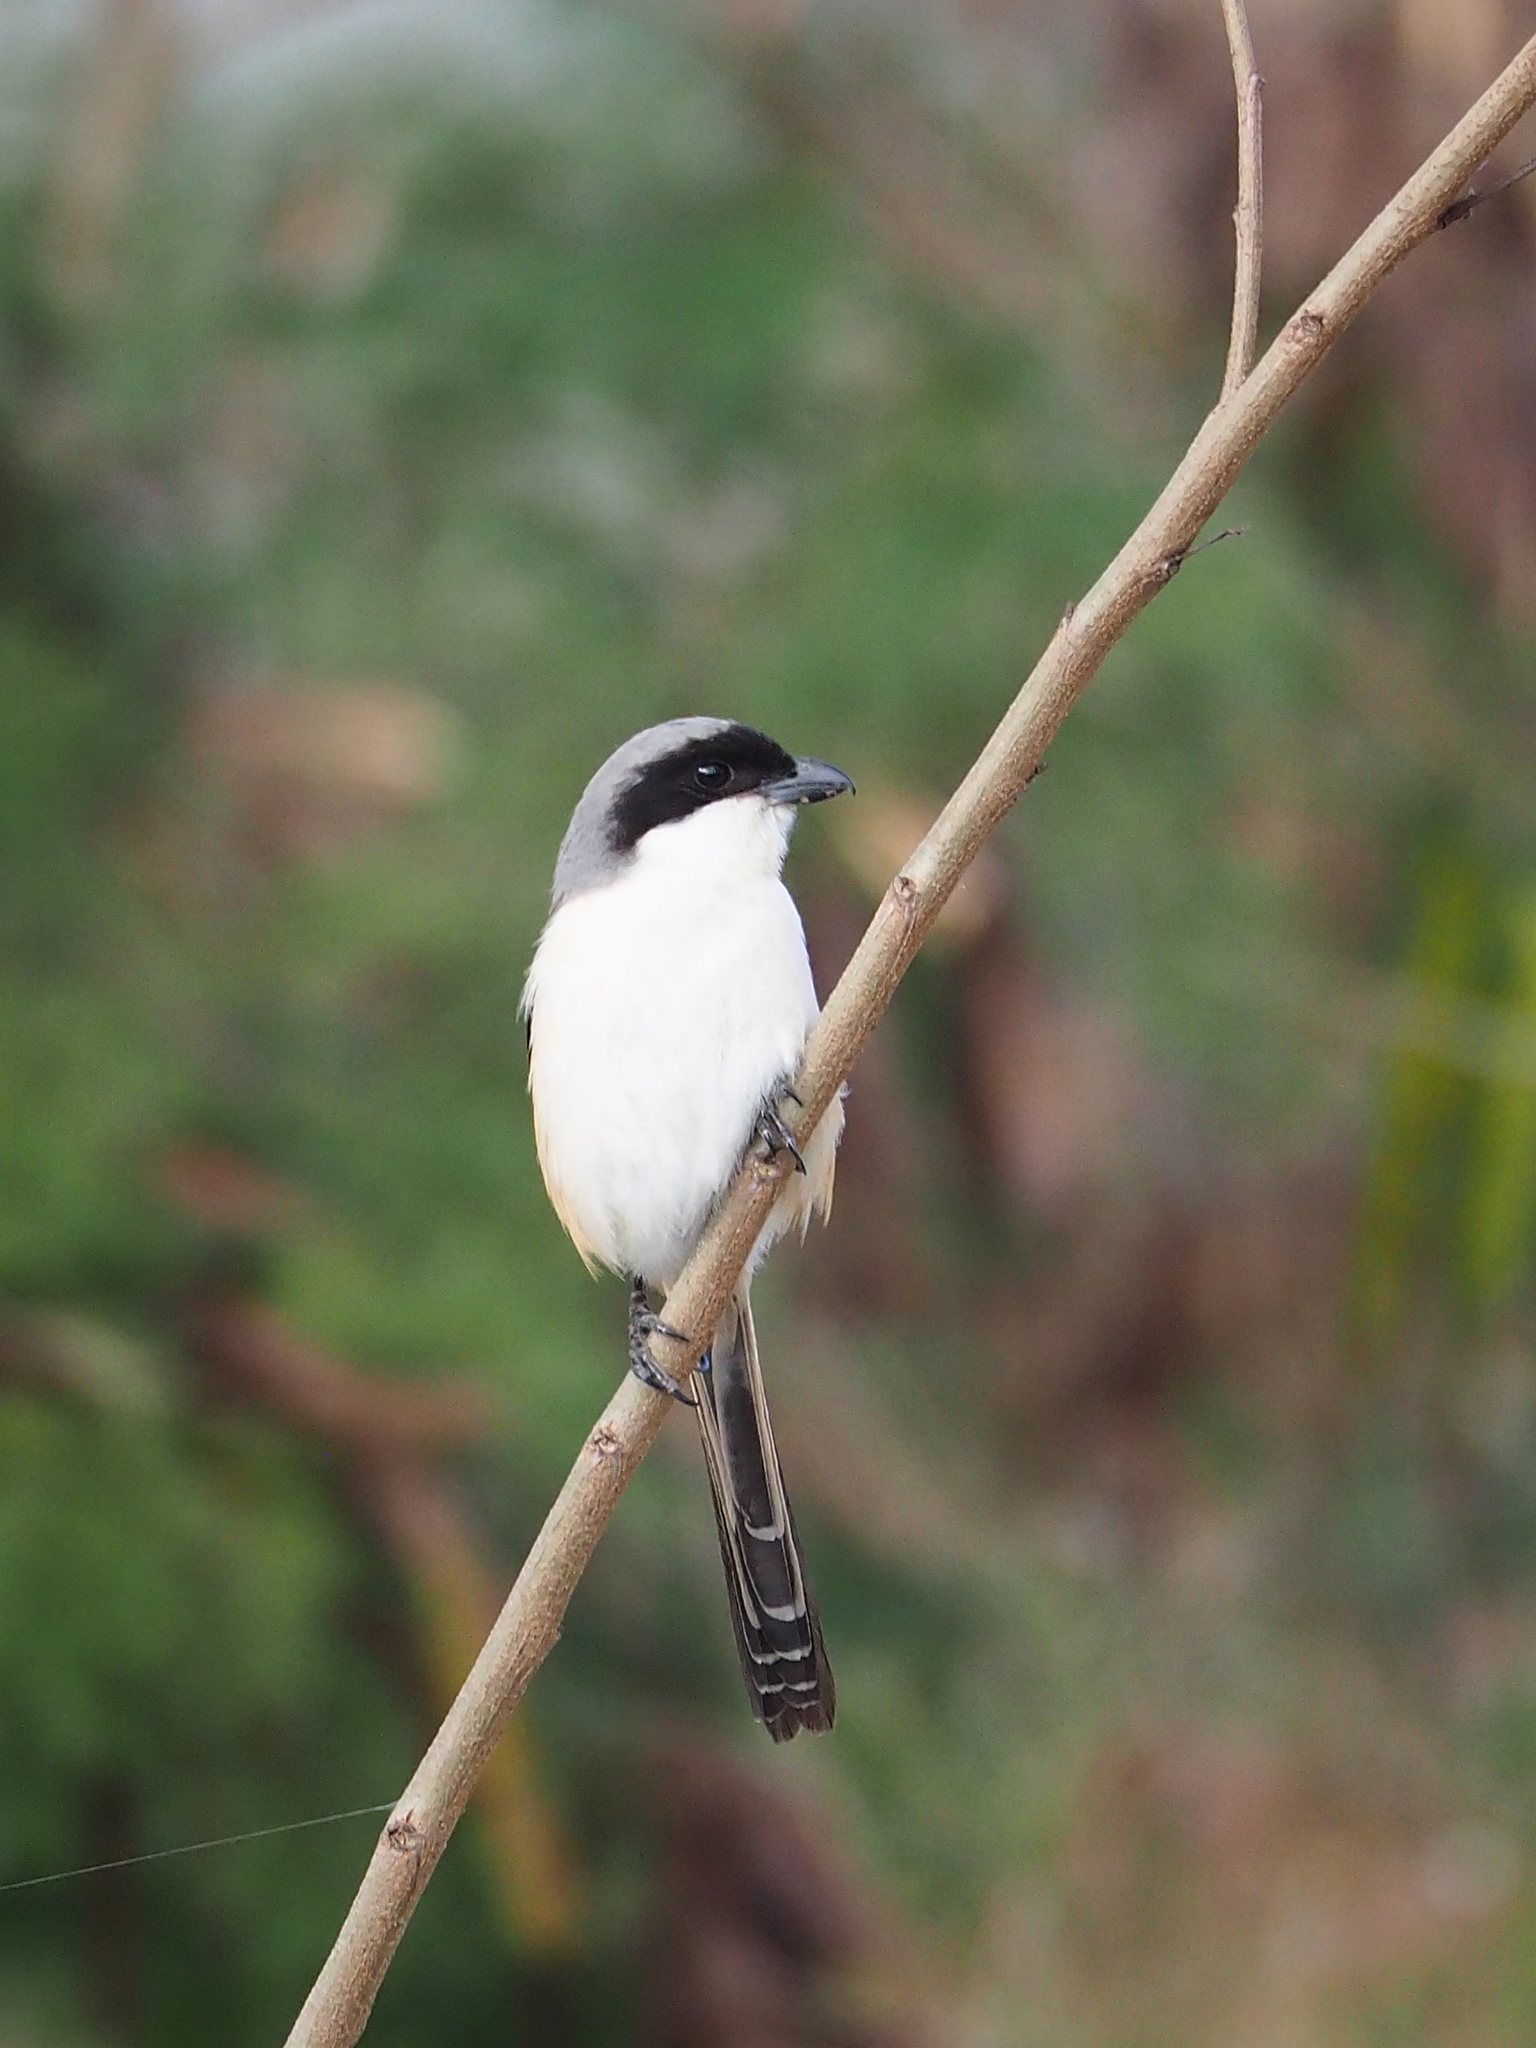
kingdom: Animalia
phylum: Chordata
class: Aves
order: Passeriformes
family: Laniidae
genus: Lanius
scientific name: Lanius schach
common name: Long-tailed shrike
